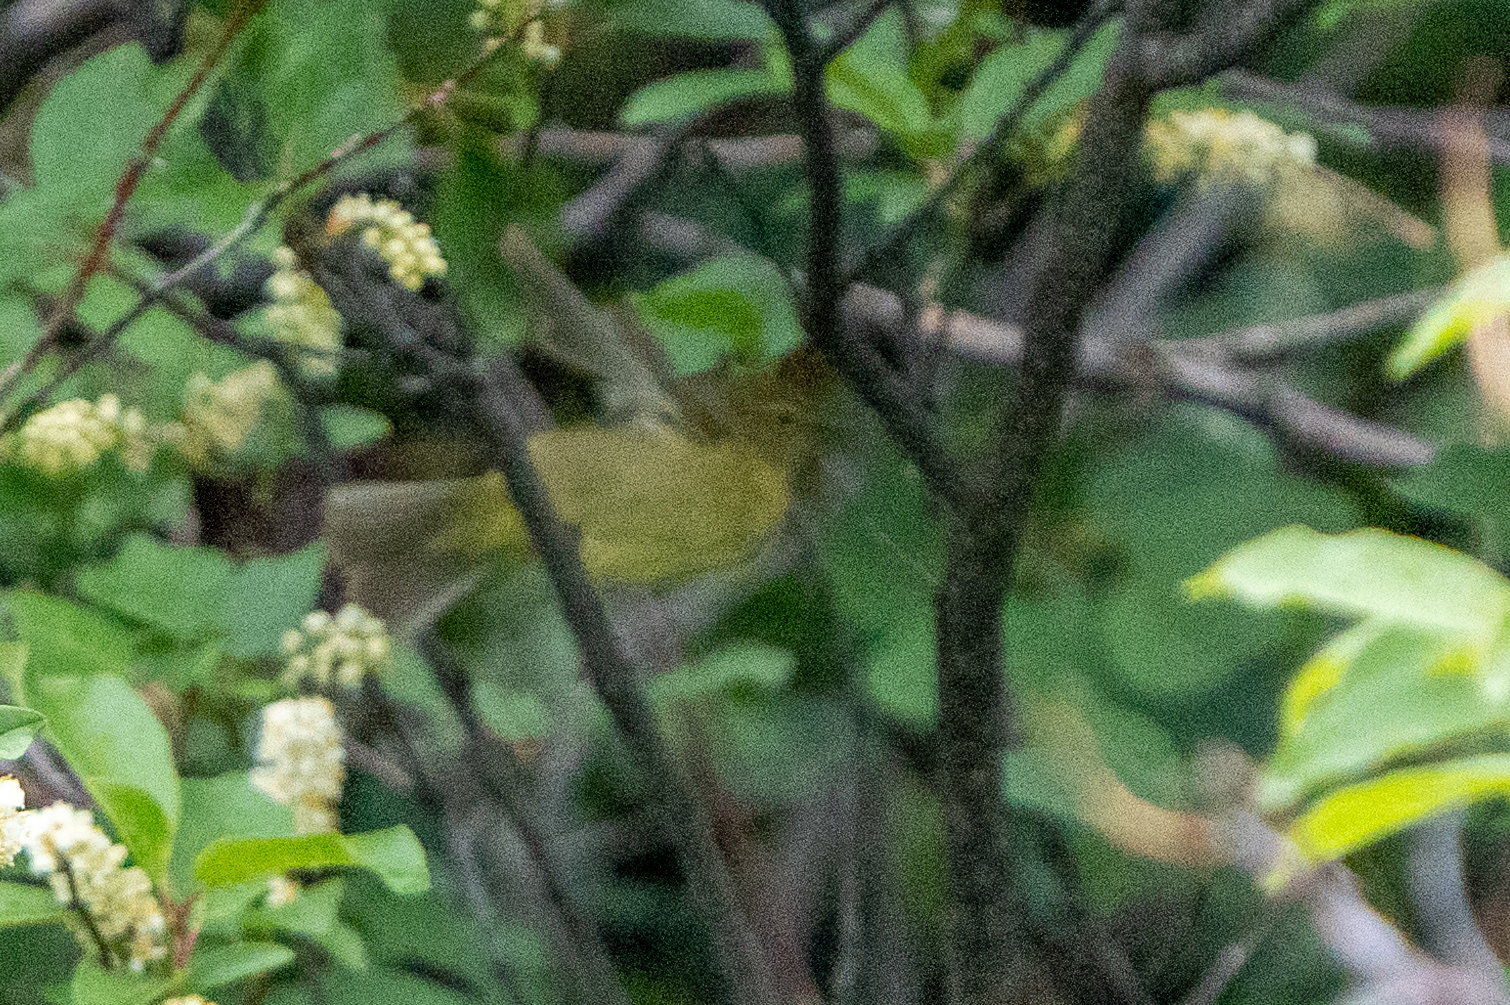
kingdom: Animalia
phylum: Chordata
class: Aves
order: Passeriformes
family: Parulidae
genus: Leiothlypis
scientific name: Leiothlypis celata
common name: Orange-crowned warbler
